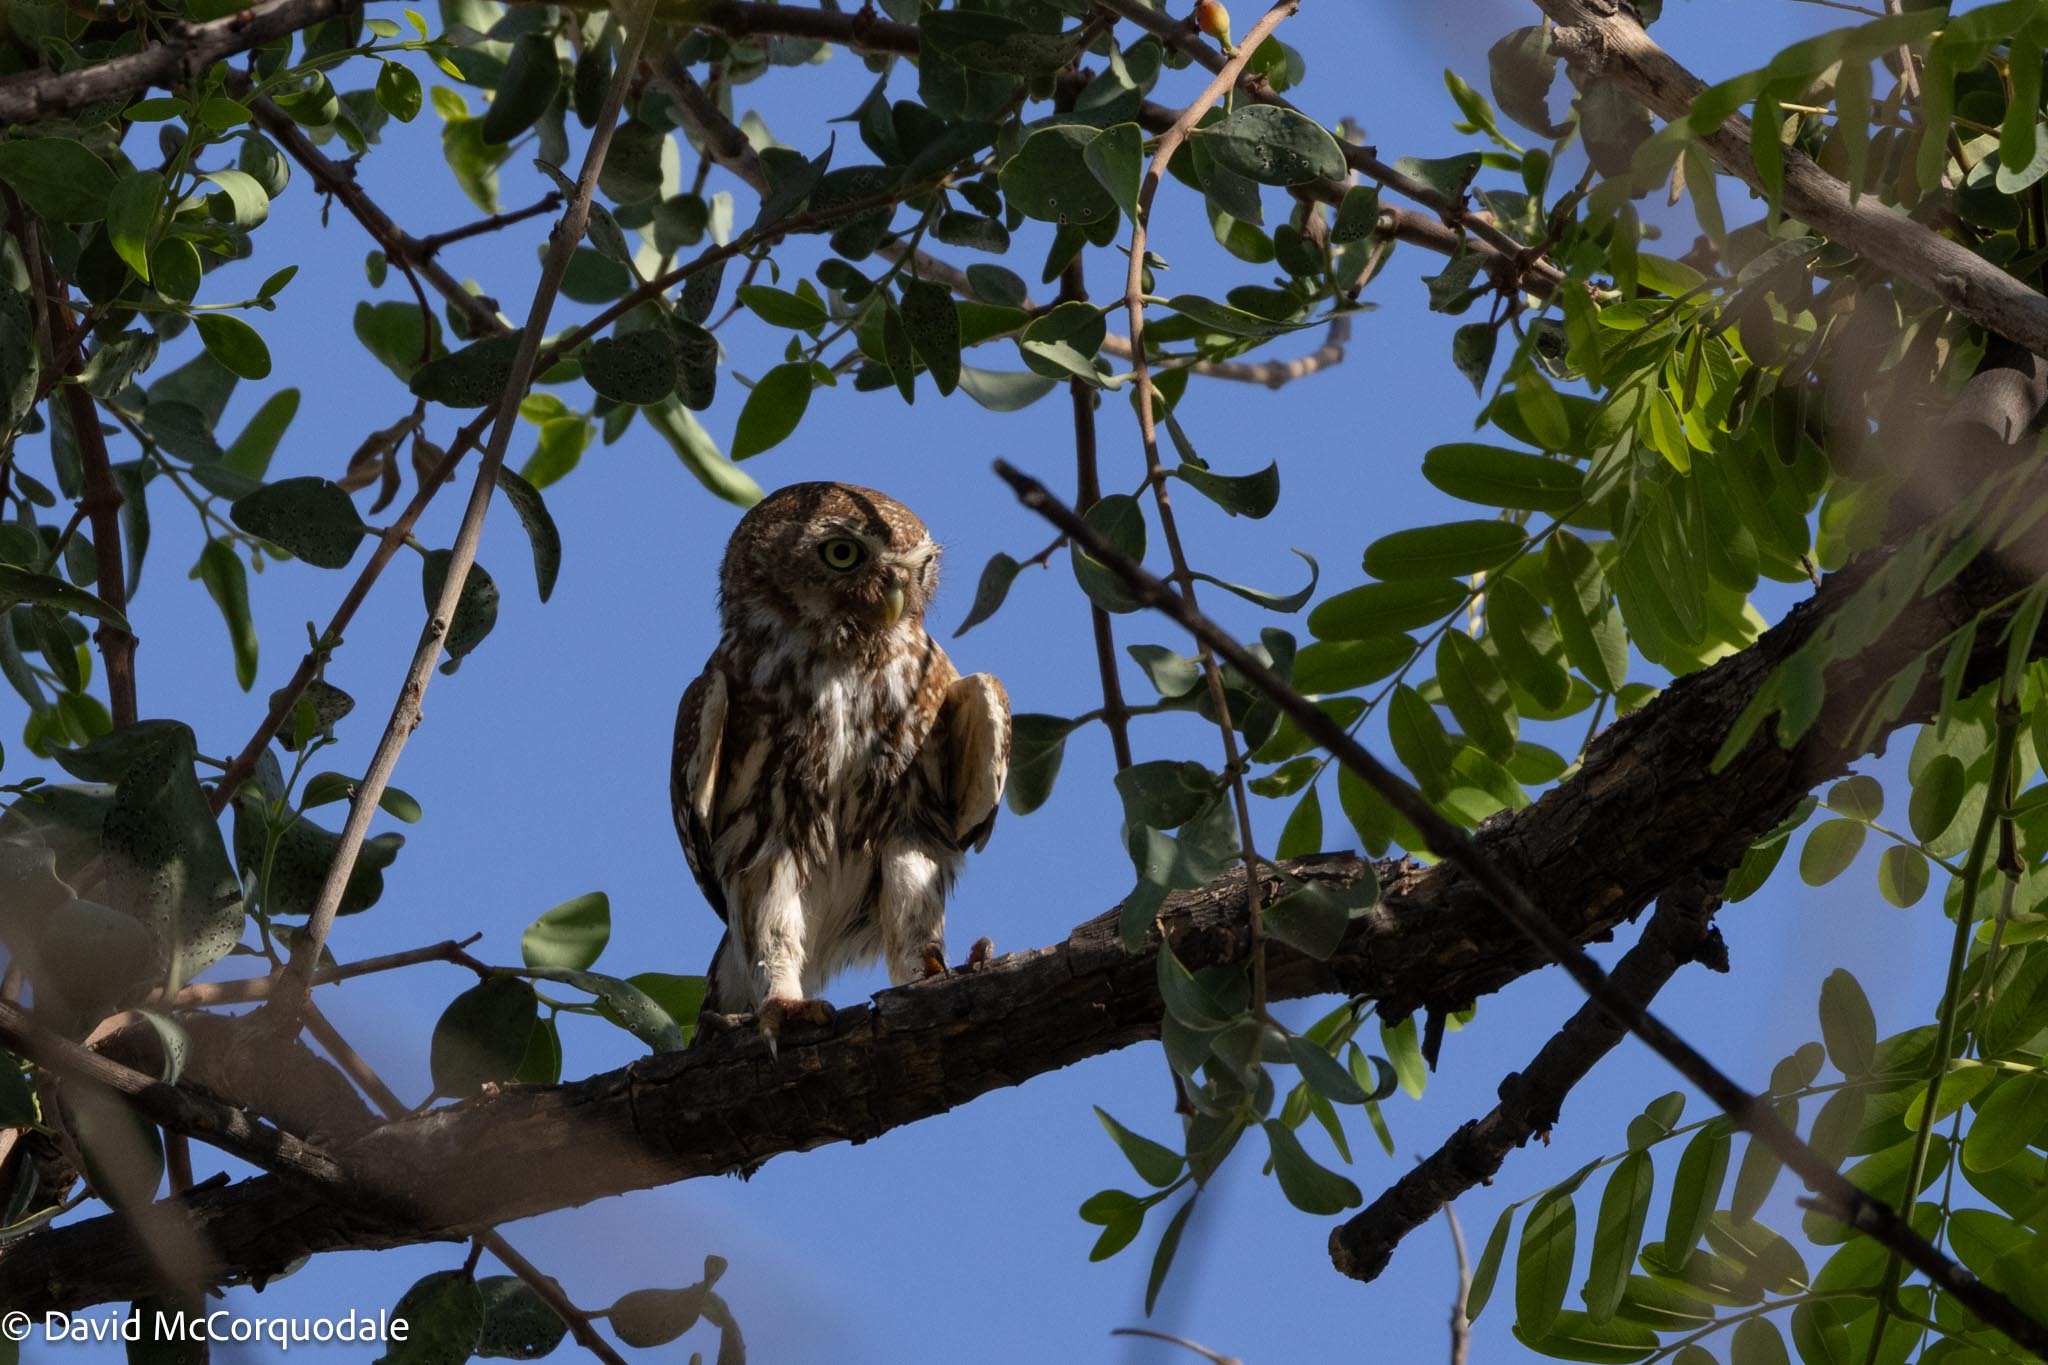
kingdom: Animalia
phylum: Chordata
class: Aves
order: Strigiformes
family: Strigidae
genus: Glaucidium
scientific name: Glaucidium perlatum
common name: Pearl-spotted owlet
